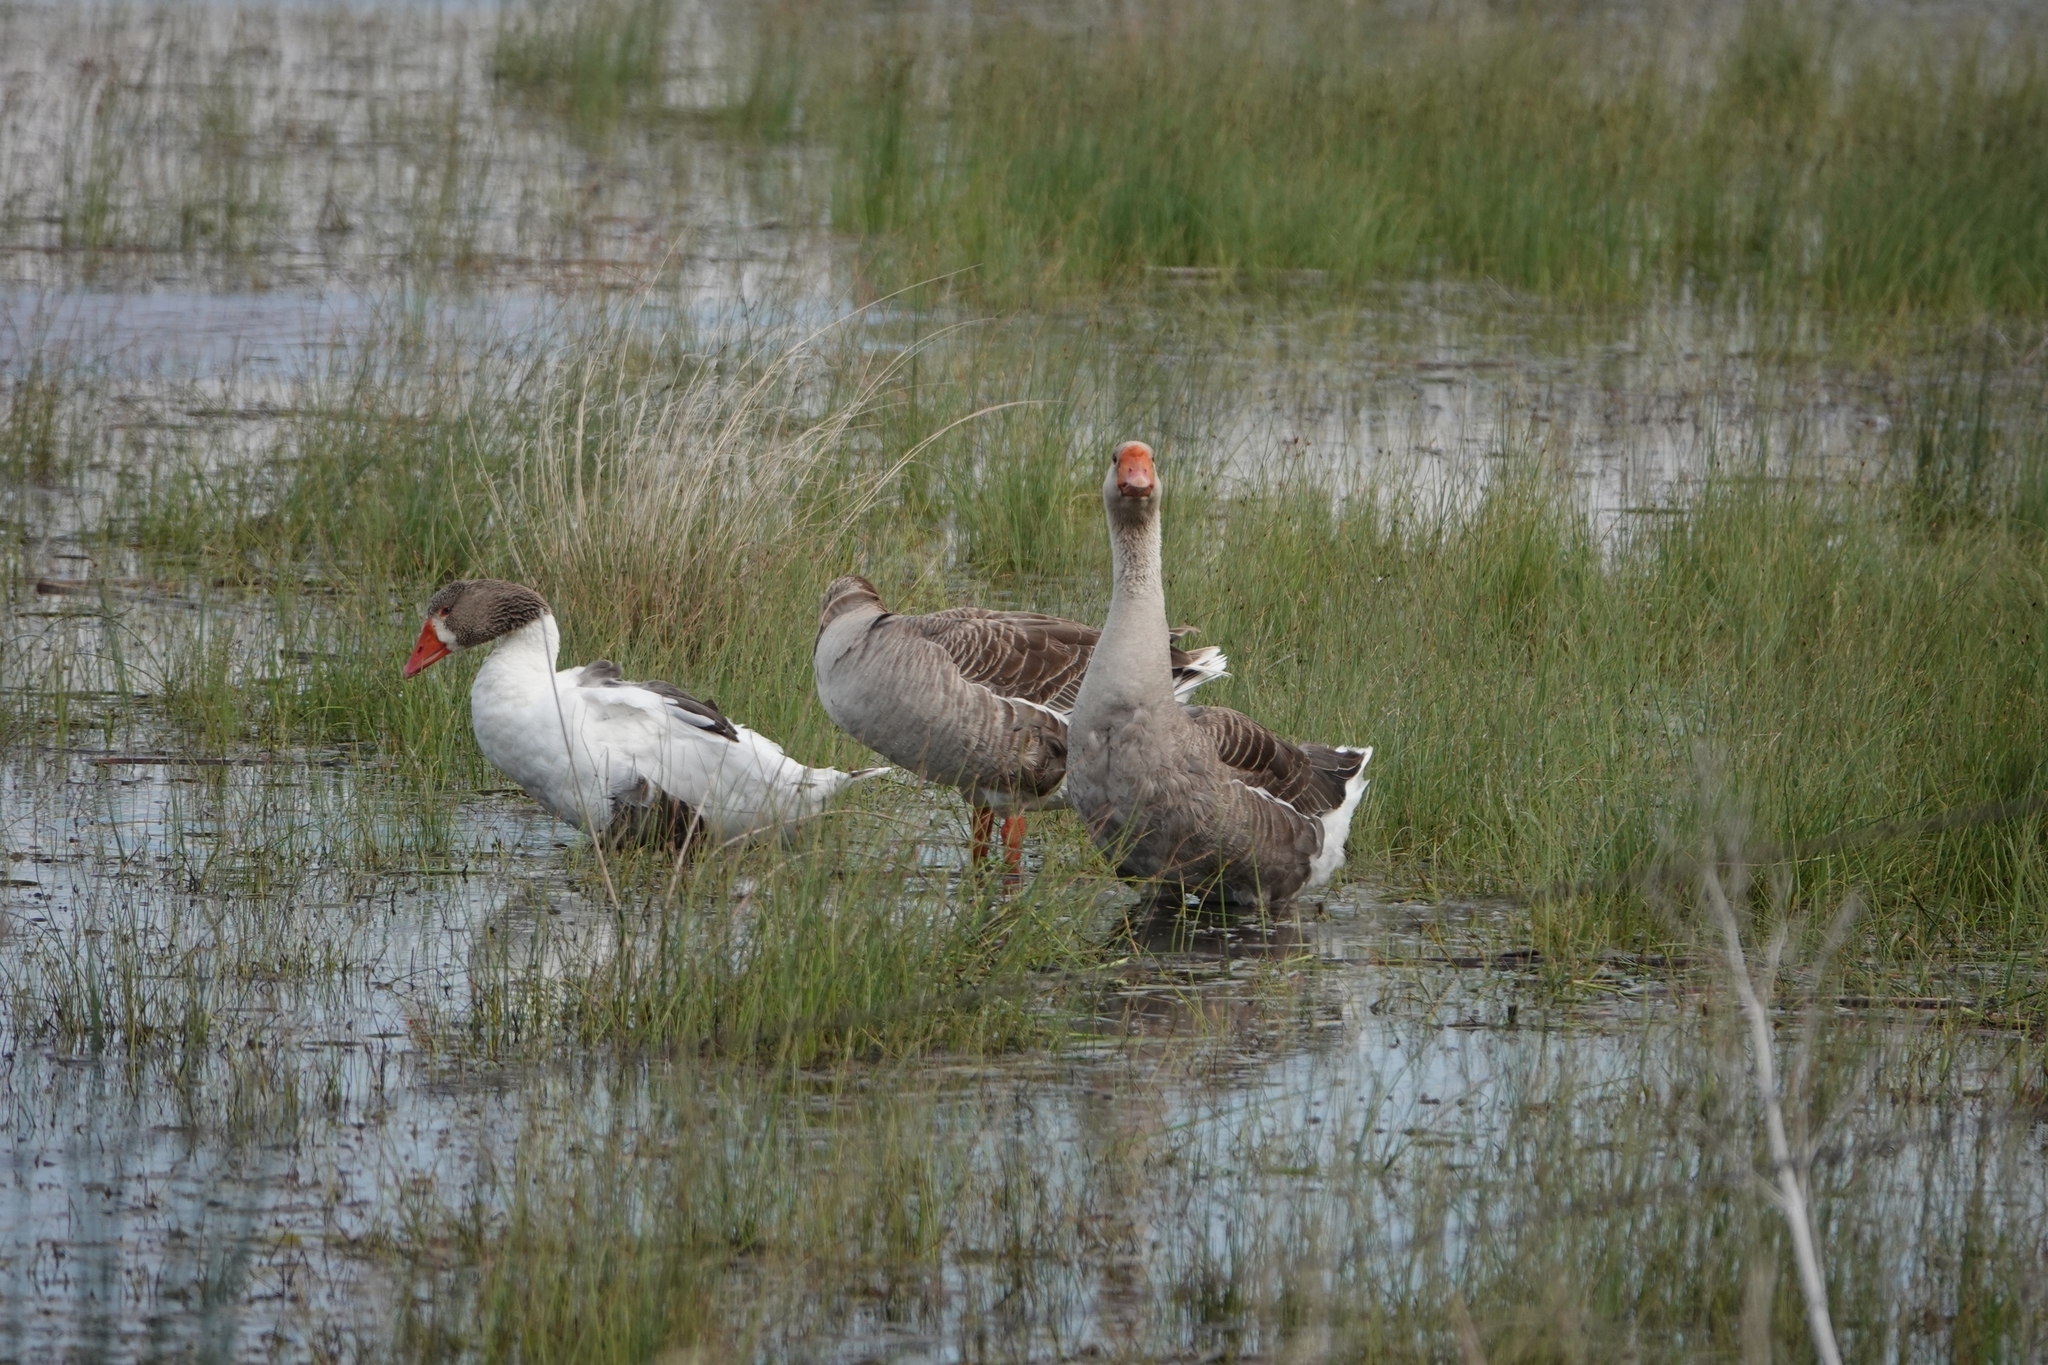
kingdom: Animalia
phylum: Chordata
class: Aves
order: Anseriformes
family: Anatidae
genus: Anser
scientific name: Anser
